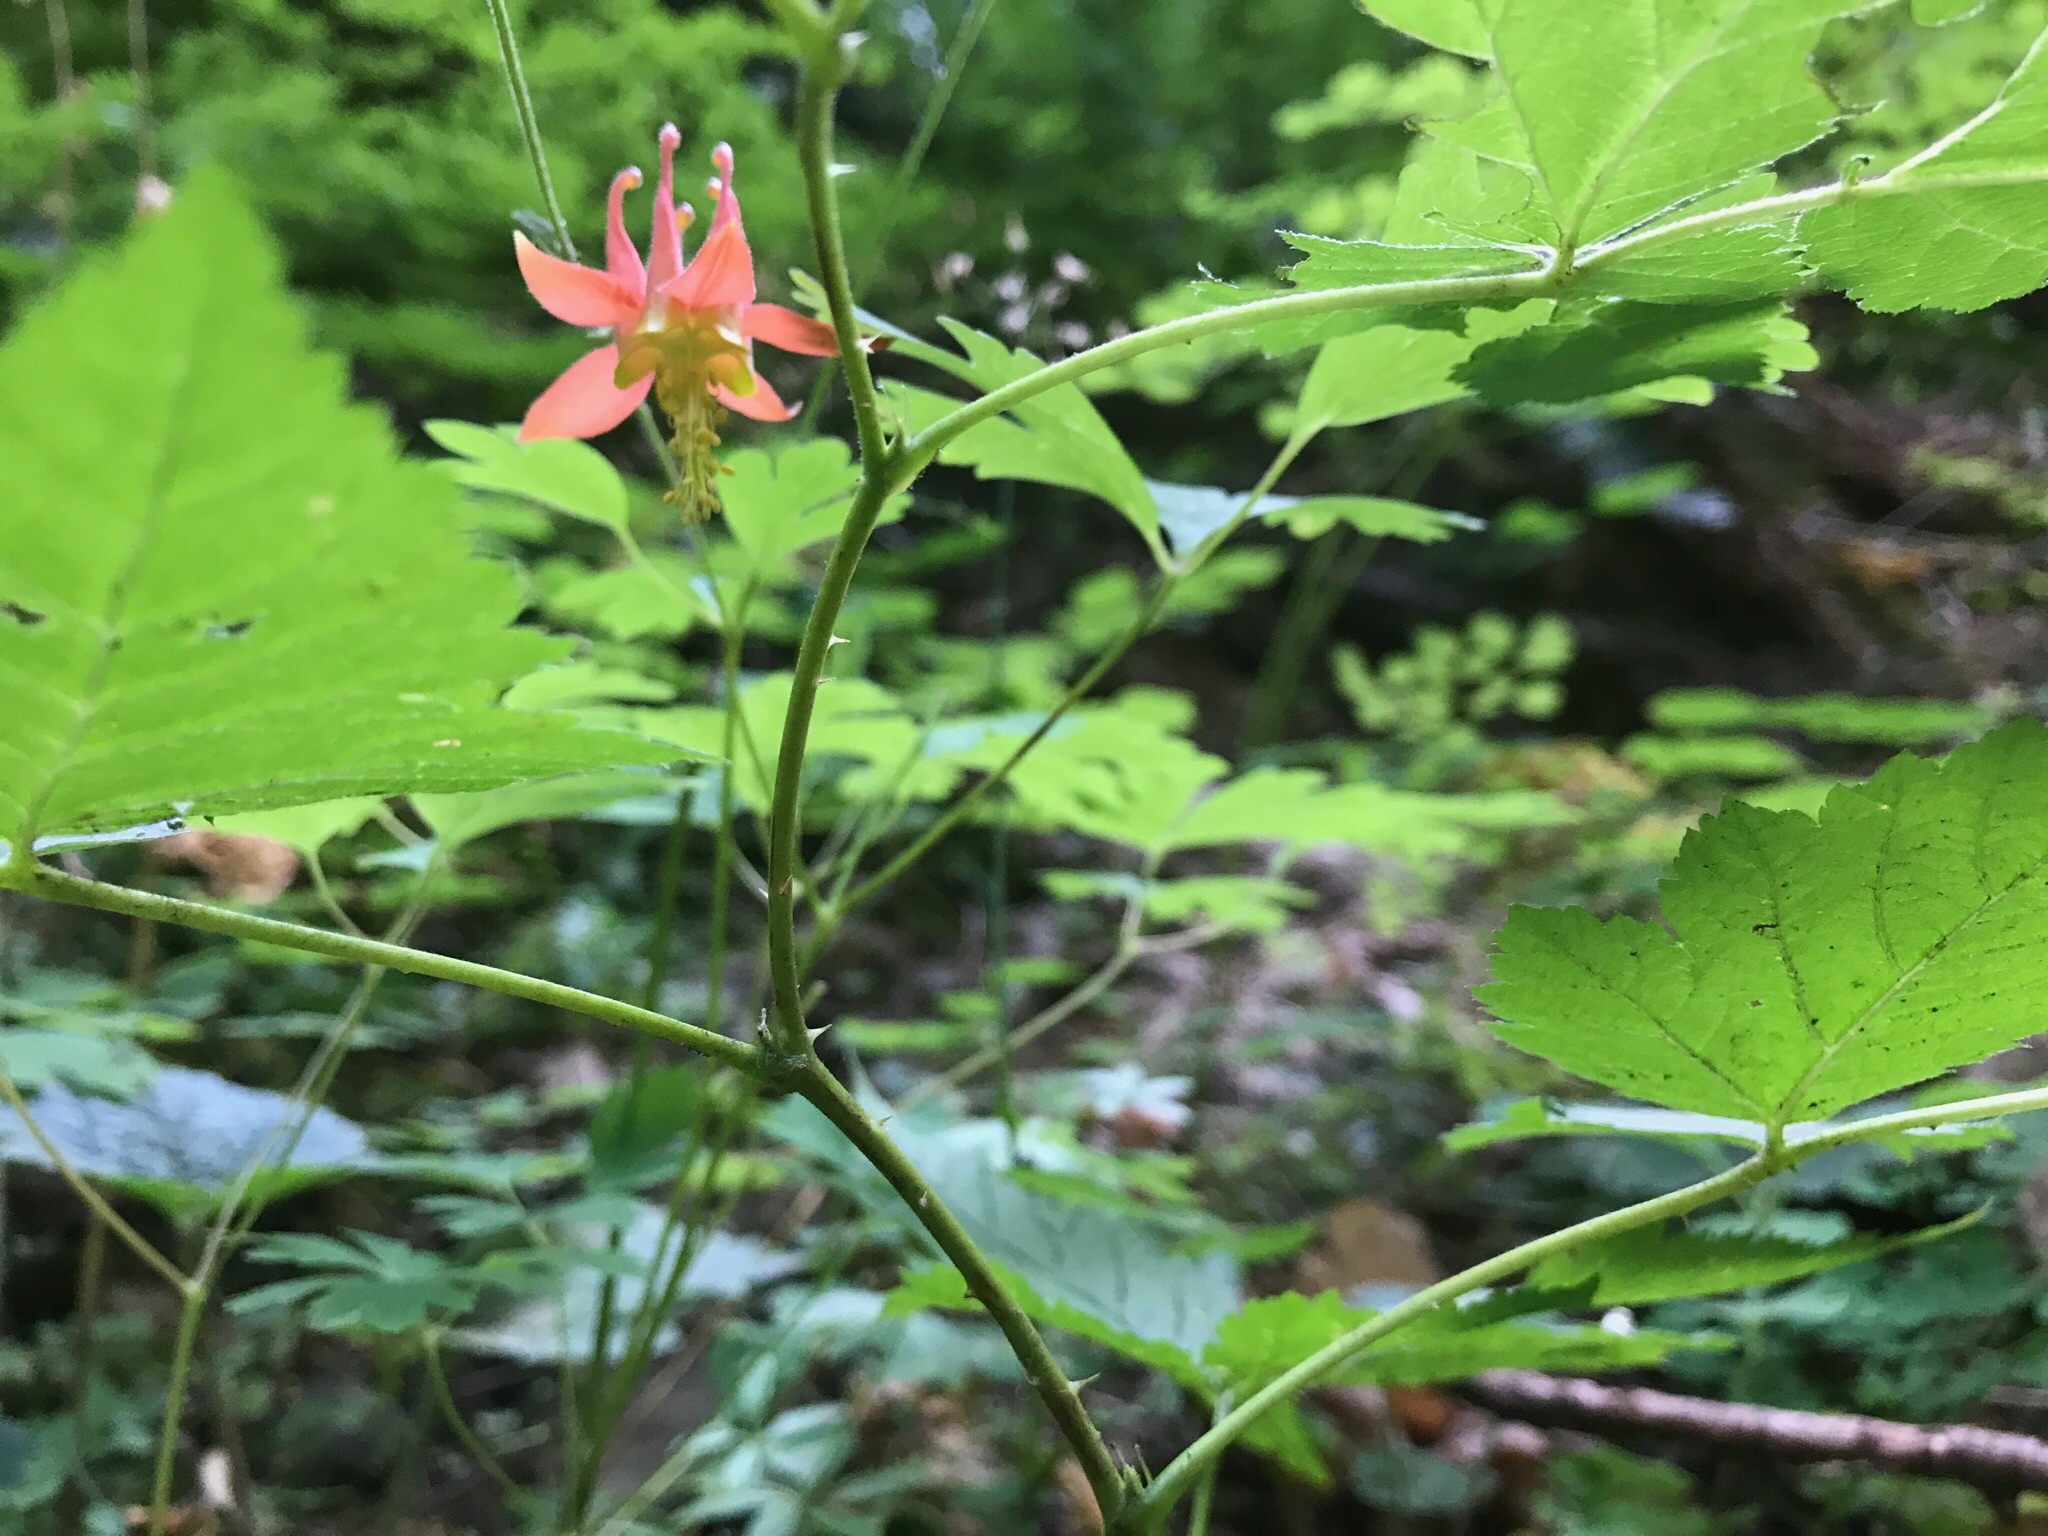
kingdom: Plantae
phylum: Tracheophyta
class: Magnoliopsida
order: Ranunculales
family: Ranunculaceae
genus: Aquilegia
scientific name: Aquilegia formosa
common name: Sitka columbine
